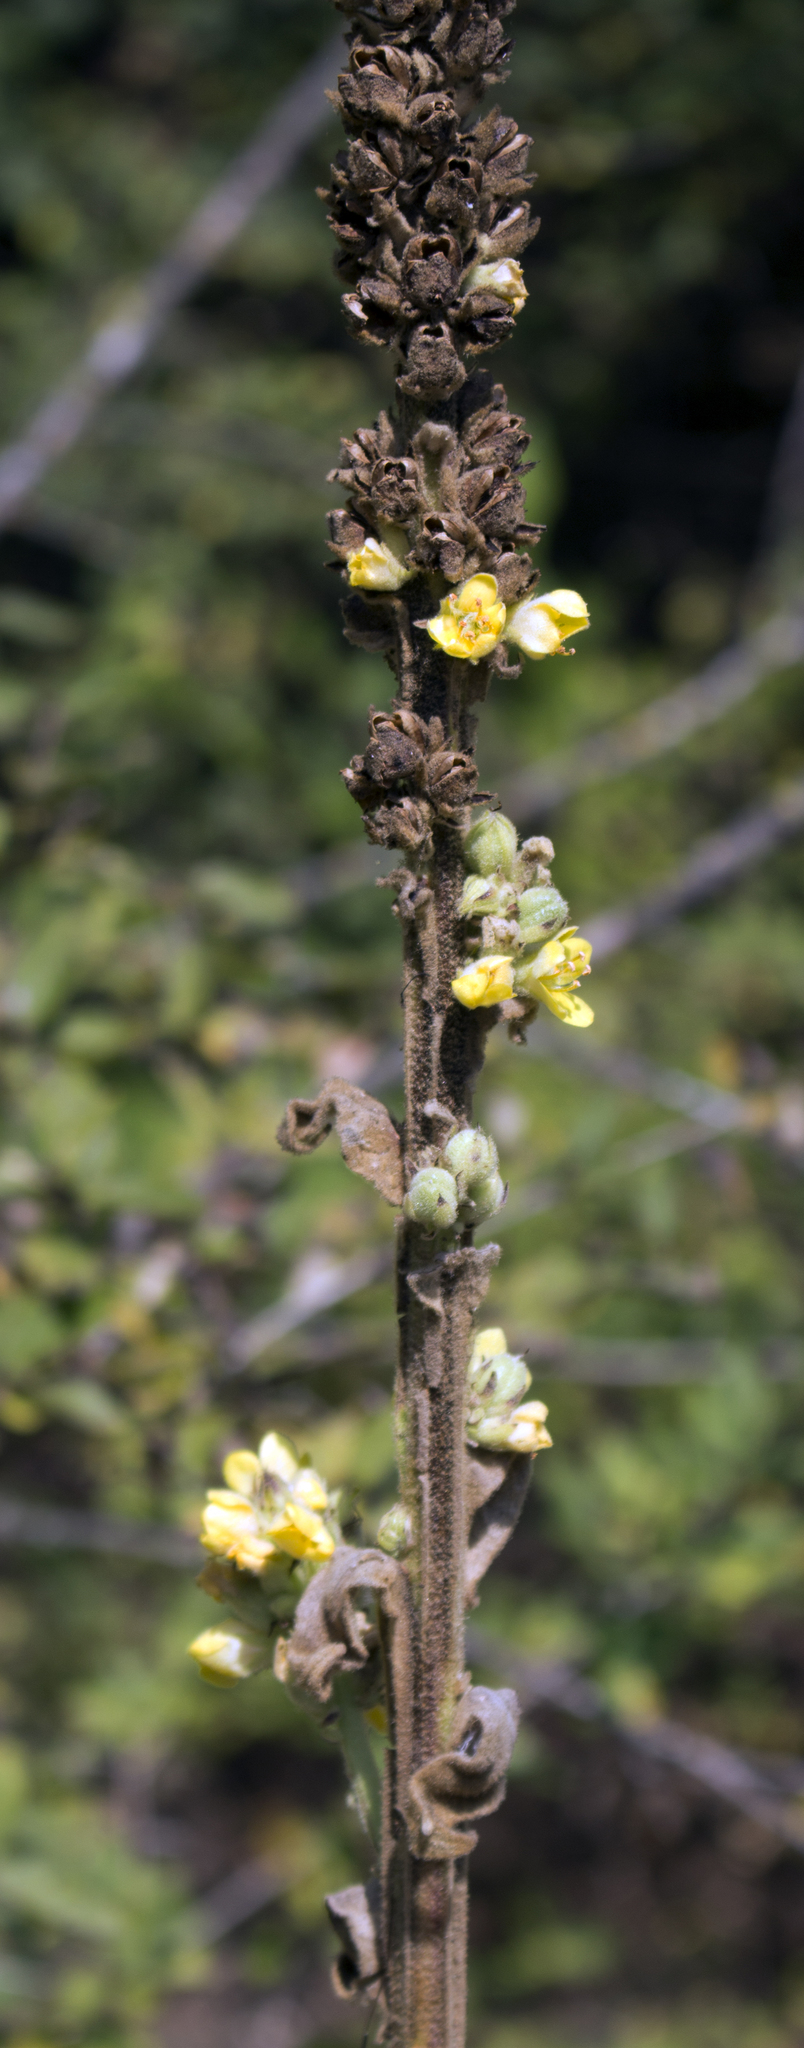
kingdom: Plantae
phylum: Tracheophyta
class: Magnoliopsida
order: Lamiales
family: Scrophulariaceae
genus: Verbascum
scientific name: Verbascum thapsus
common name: Common mullein
